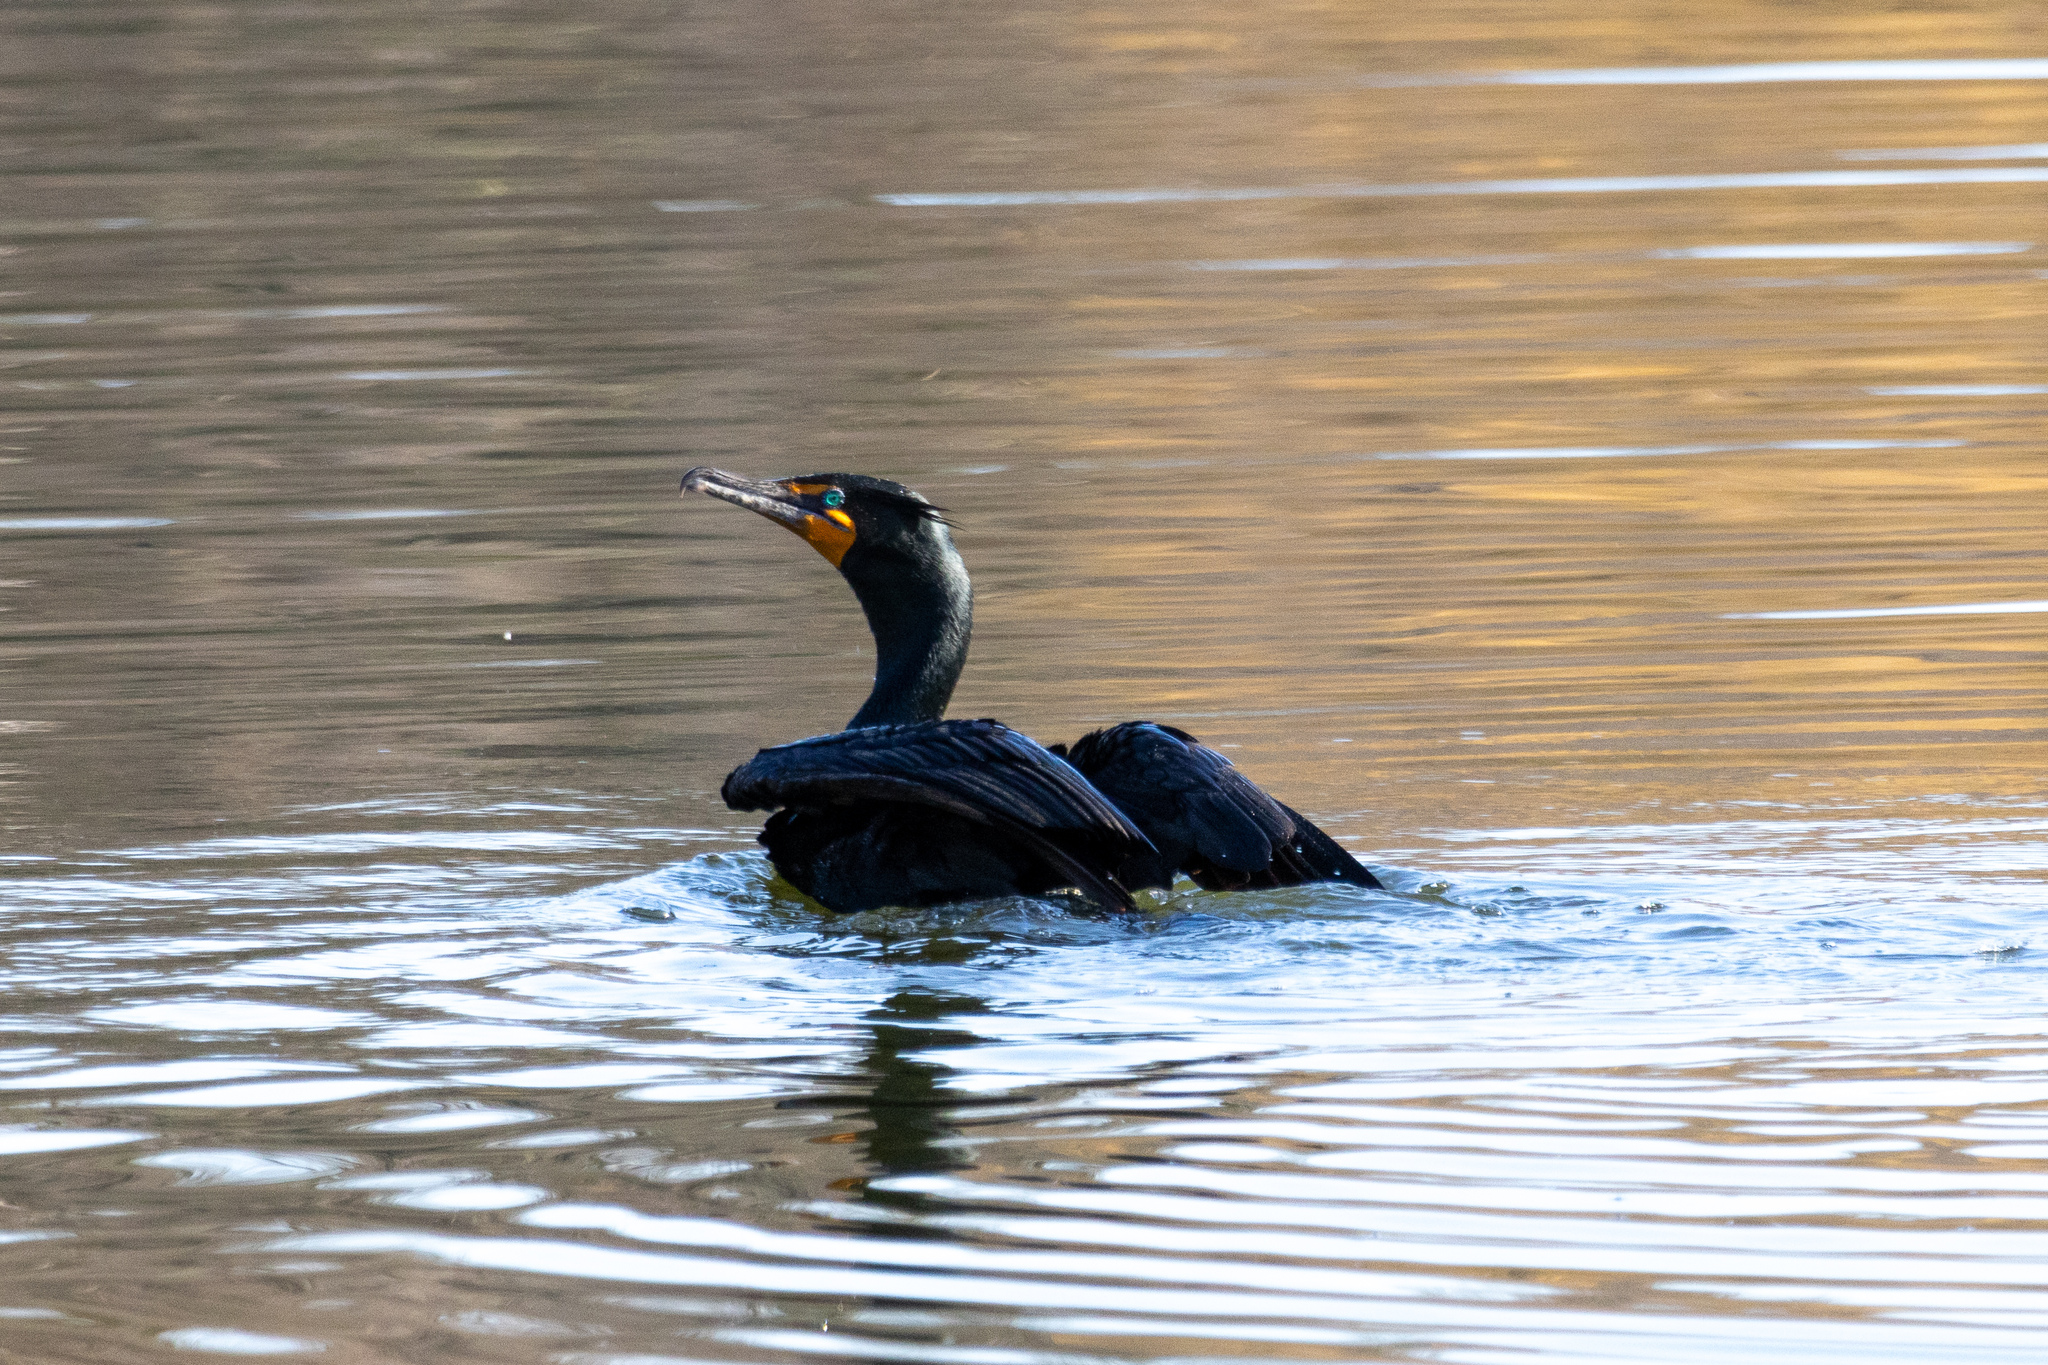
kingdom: Animalia
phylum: Chordata
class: Aves
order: Suliformes
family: Phalacrocoracidae
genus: Phalacrocorax
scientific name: Phalacrocorax auritus
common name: Double-crested cormorant
